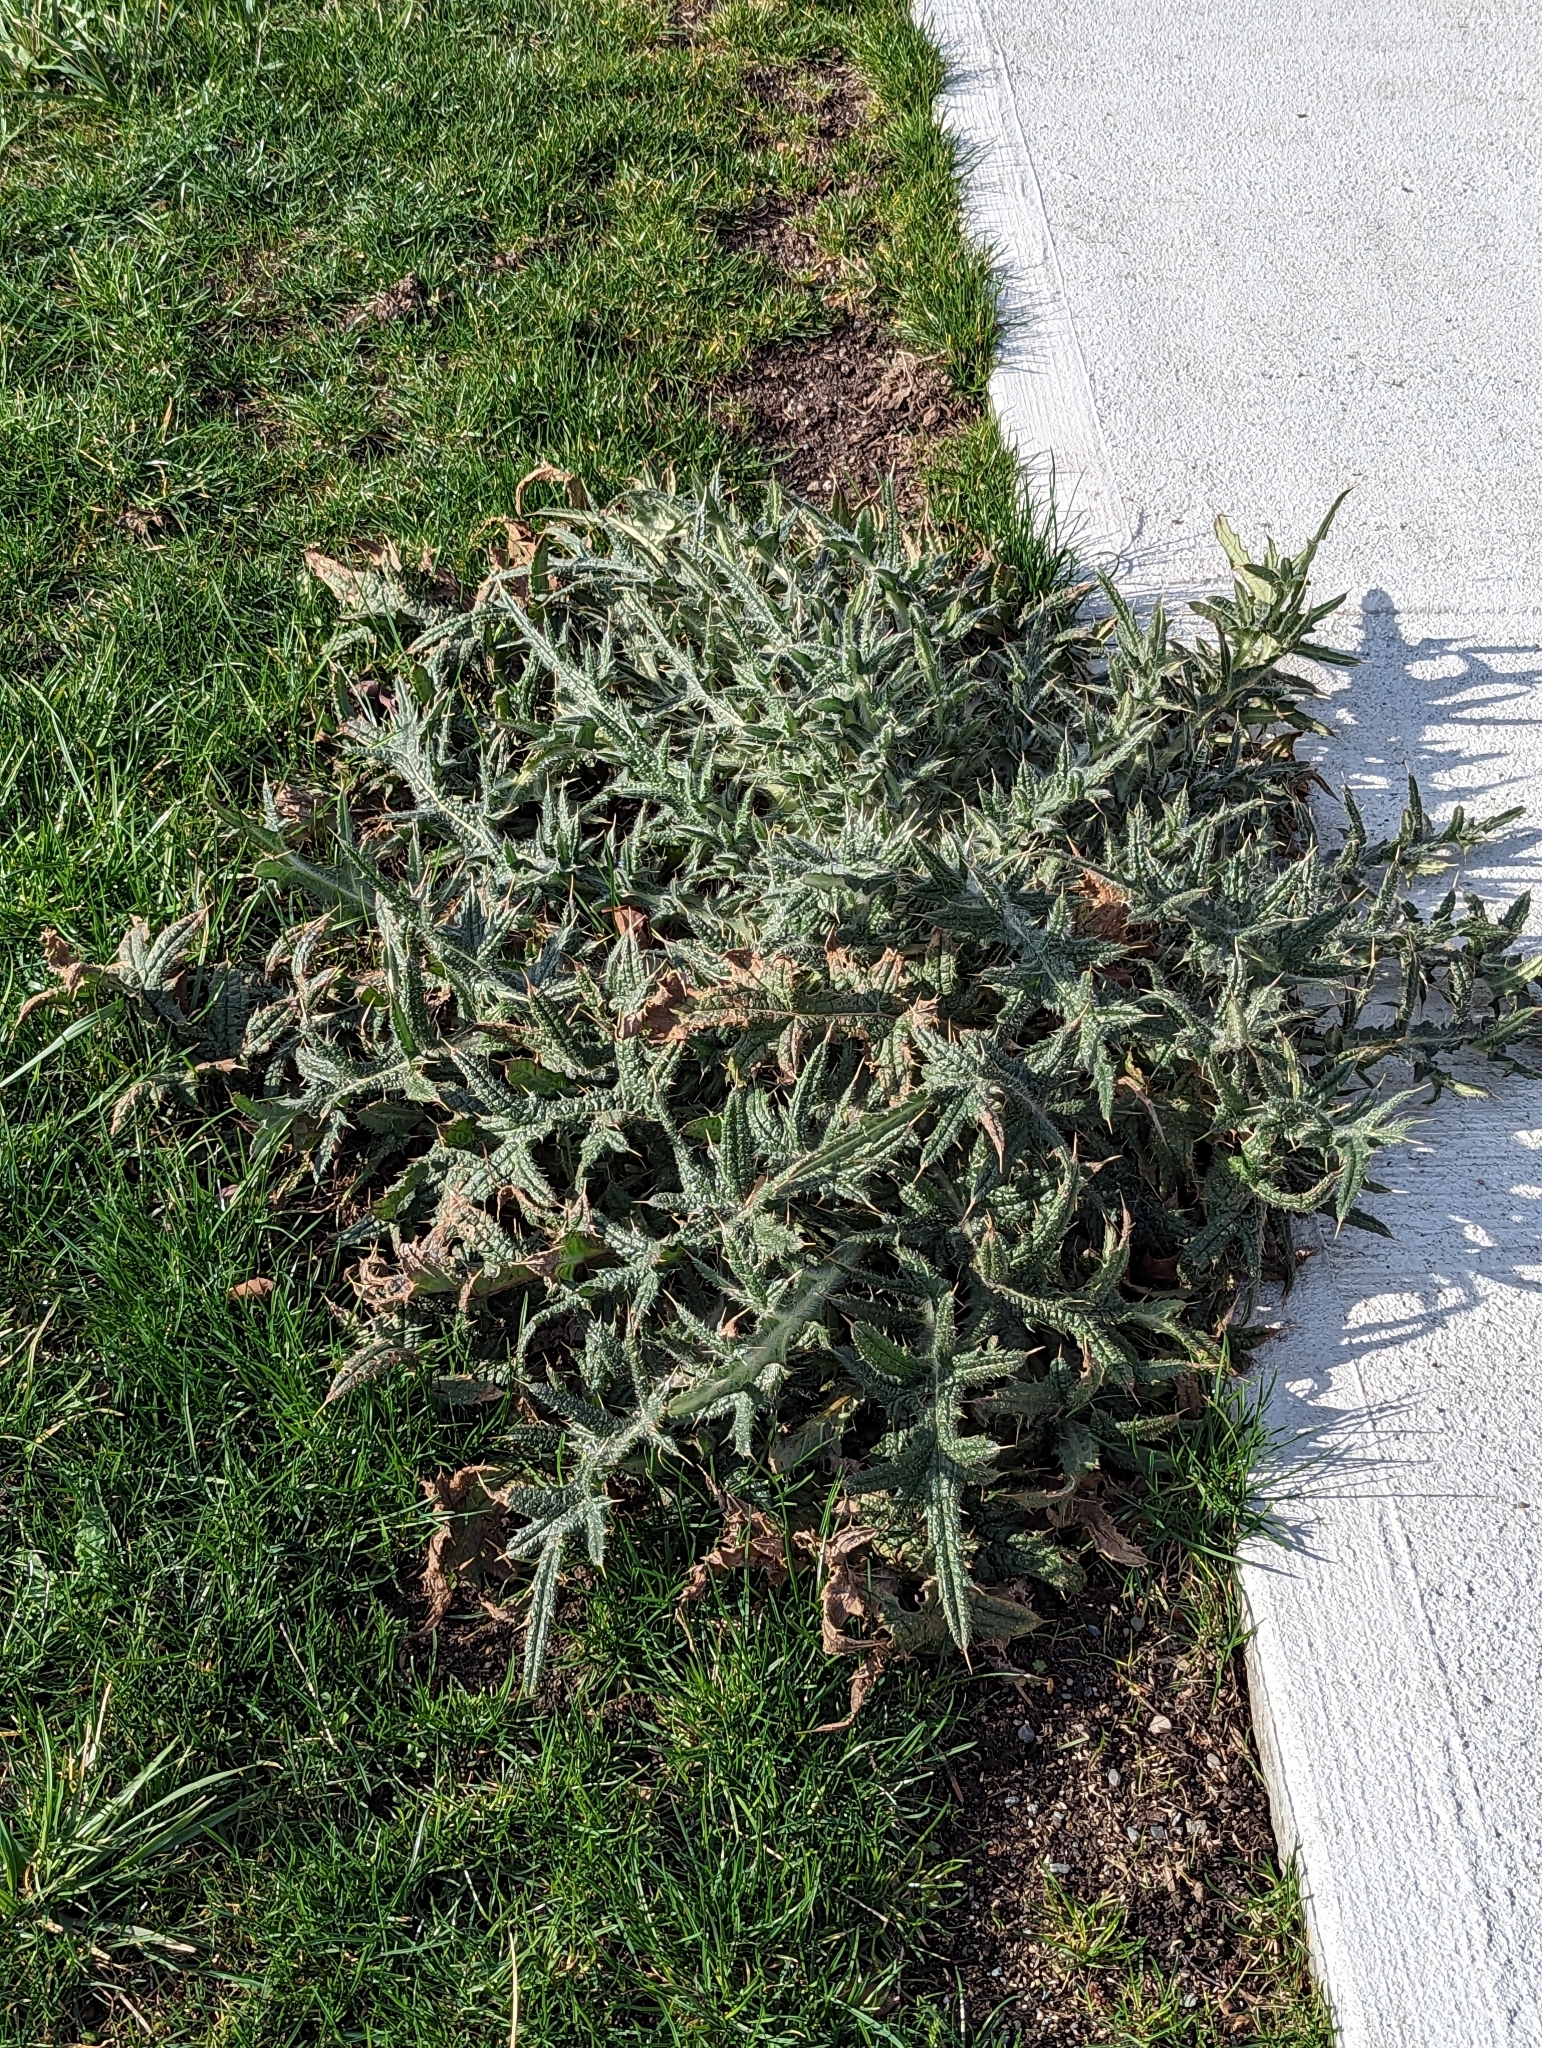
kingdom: Plantae
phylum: Tracheophyta
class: Magnoliopsida
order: Asterales
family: Asteraceae
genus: Cirsium
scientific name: Cirsium vulgare
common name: Bull thistle
